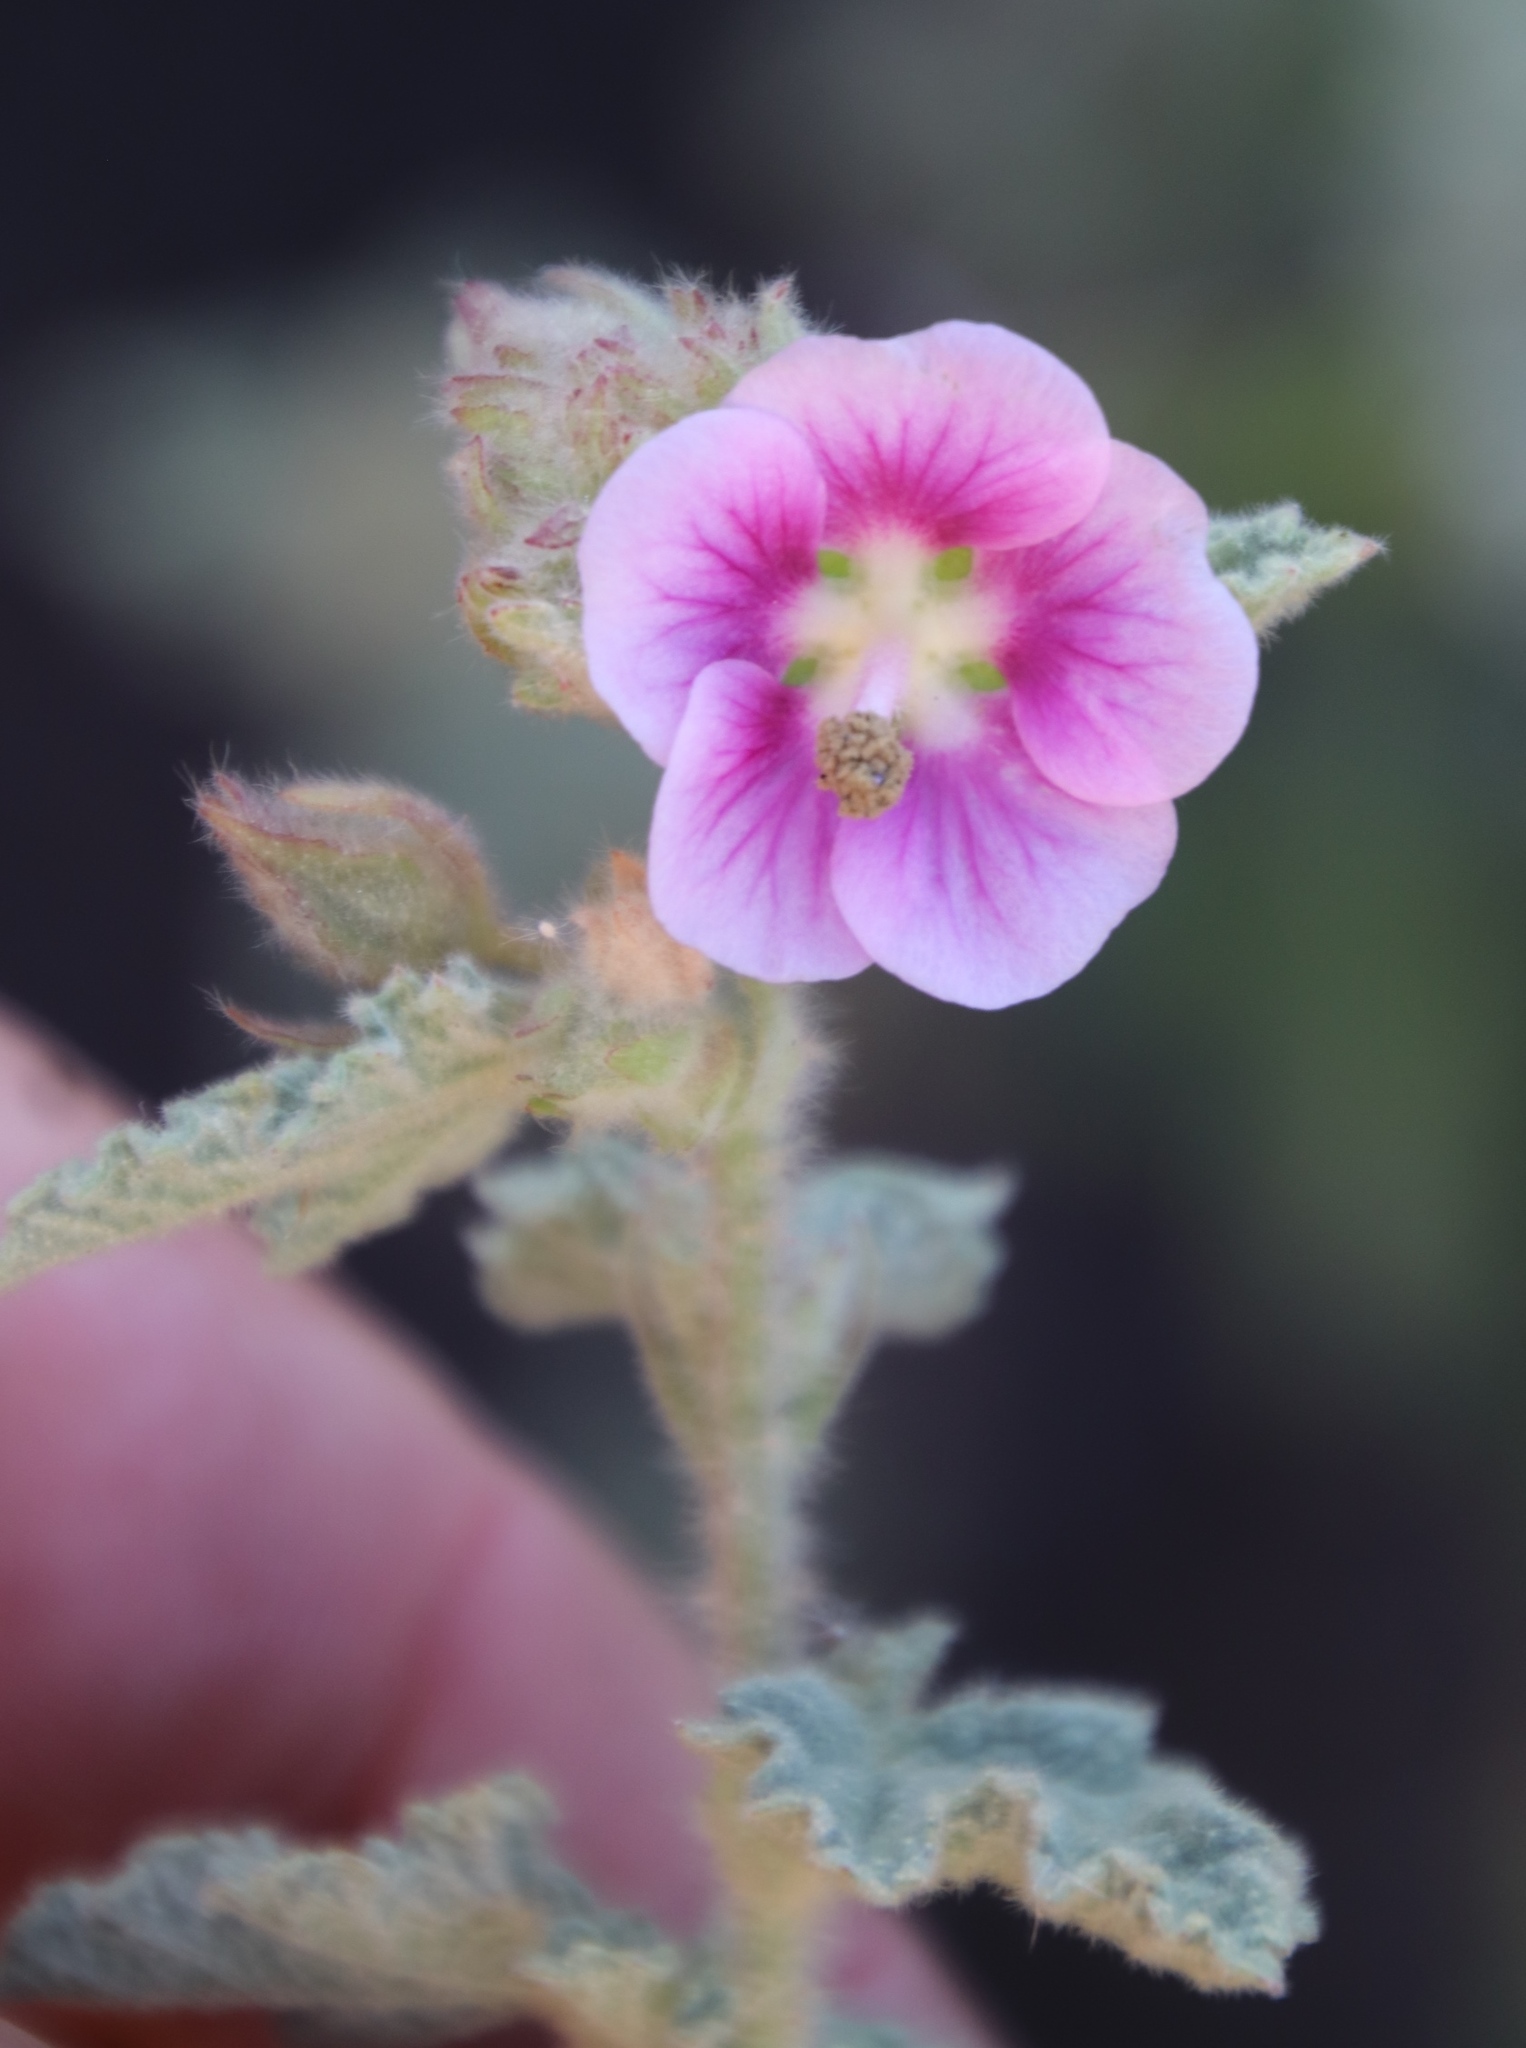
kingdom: Plantae
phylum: Tracheophyta
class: Magnoliopsida
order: Malvales
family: Malvaceae
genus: Anisodontea
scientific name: Anisodontea scabrosa
